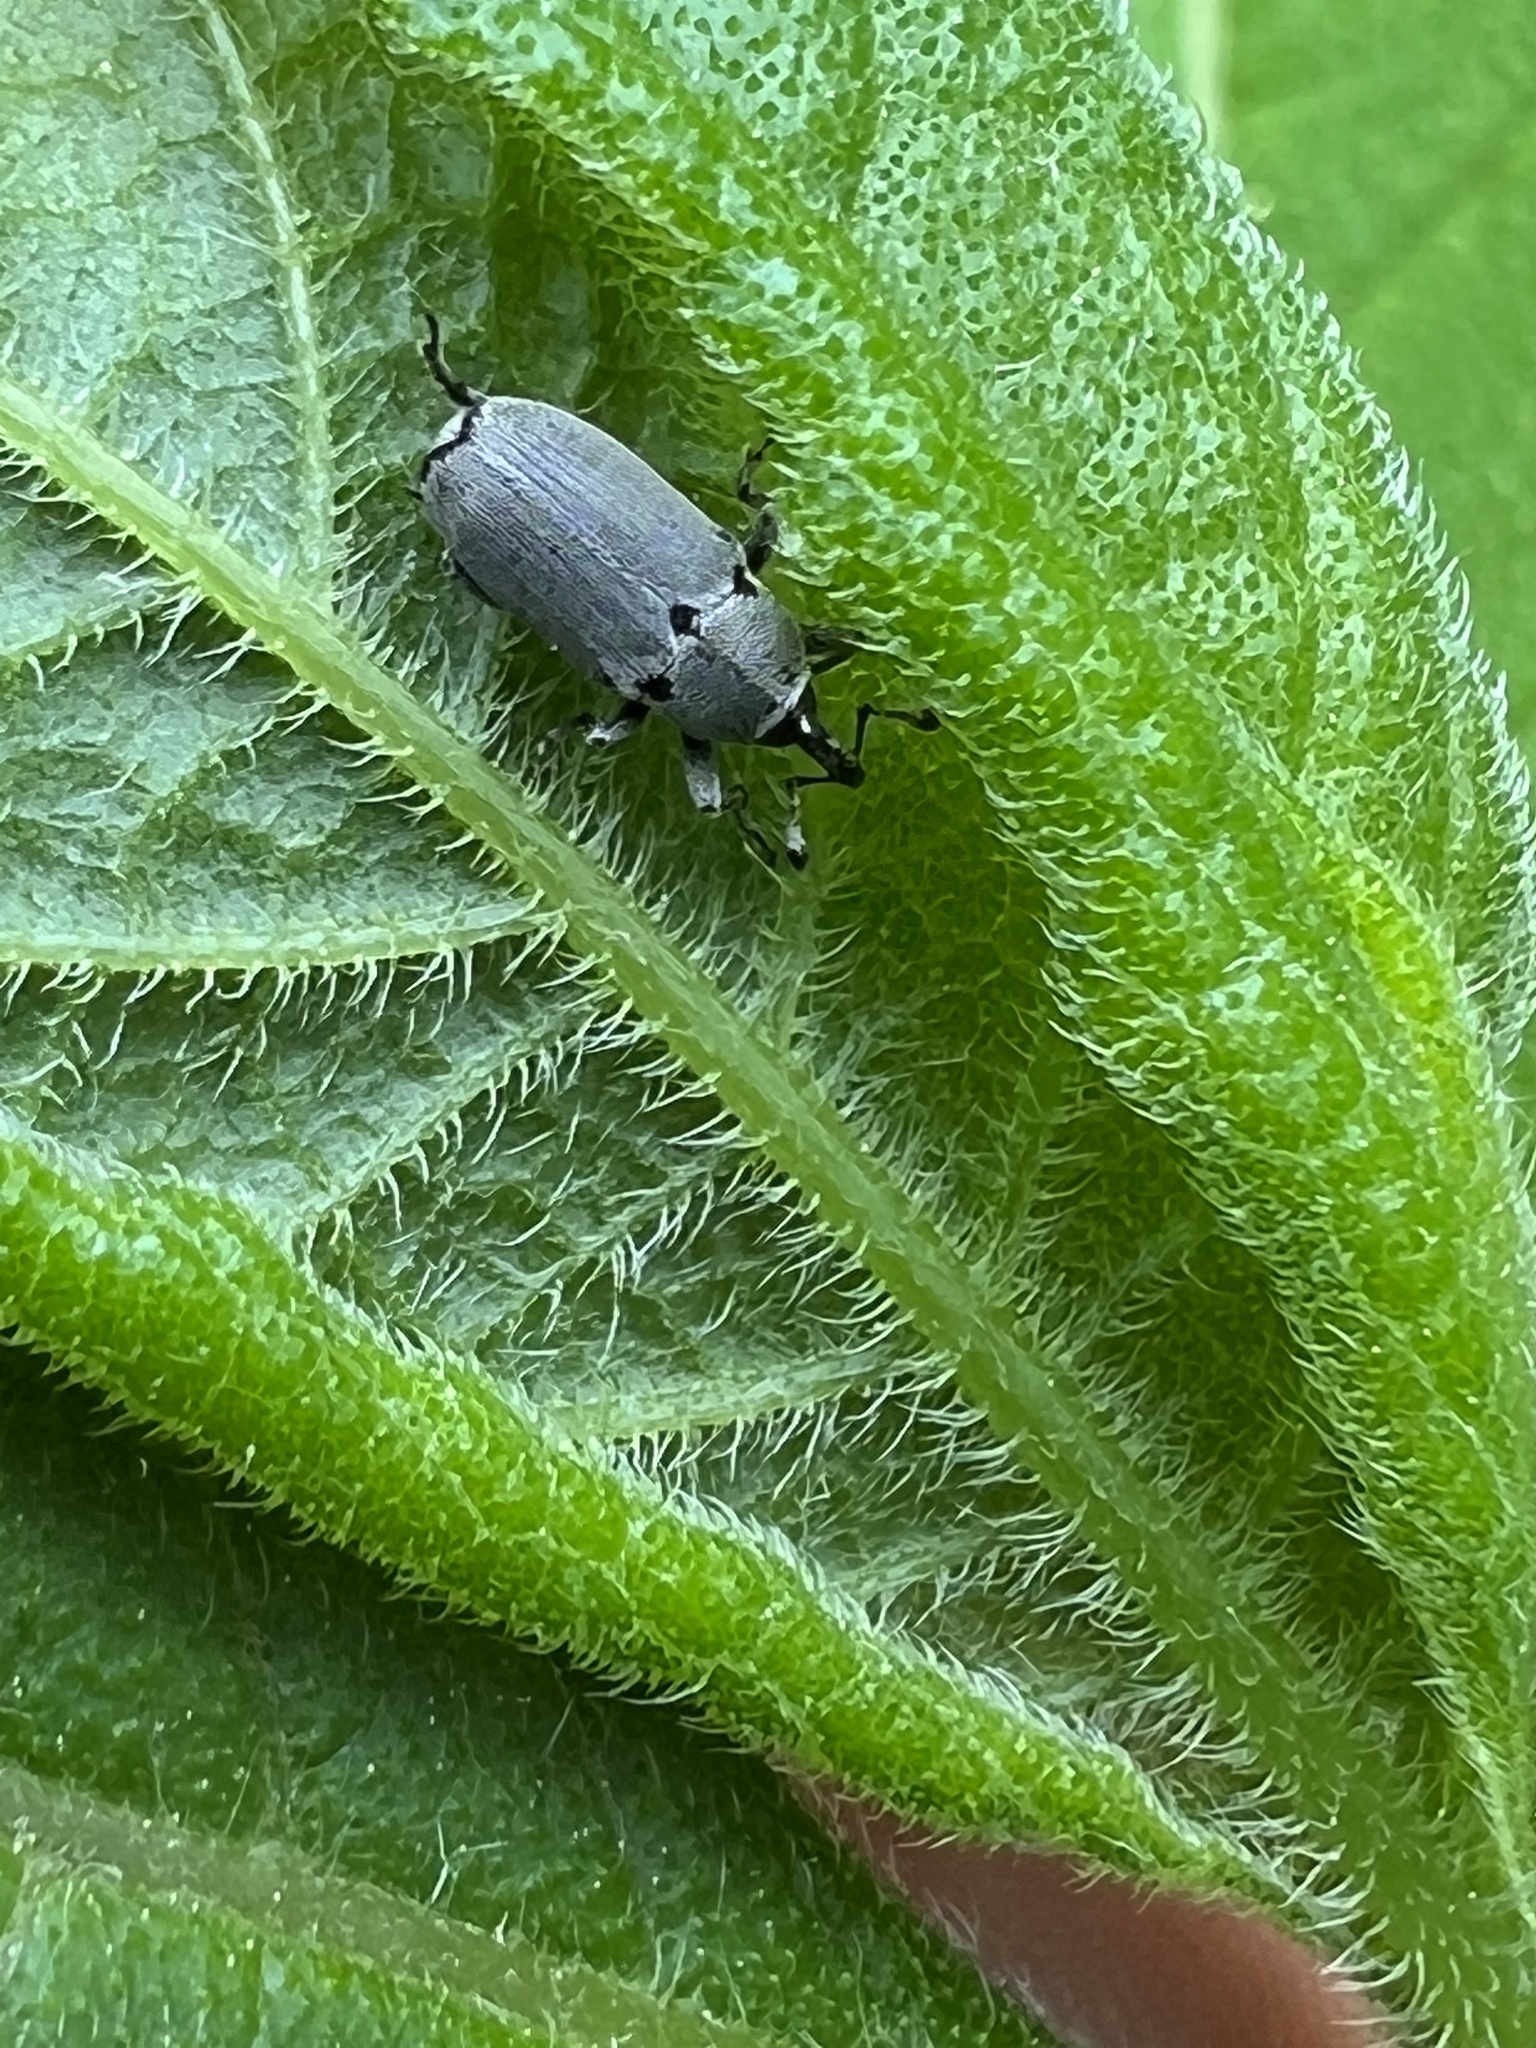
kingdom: Animalia
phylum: Arthropoda
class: Insecta
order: Coleoptera
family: Curculionidae
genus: Trichobaris
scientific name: Trichobaris trinotata
